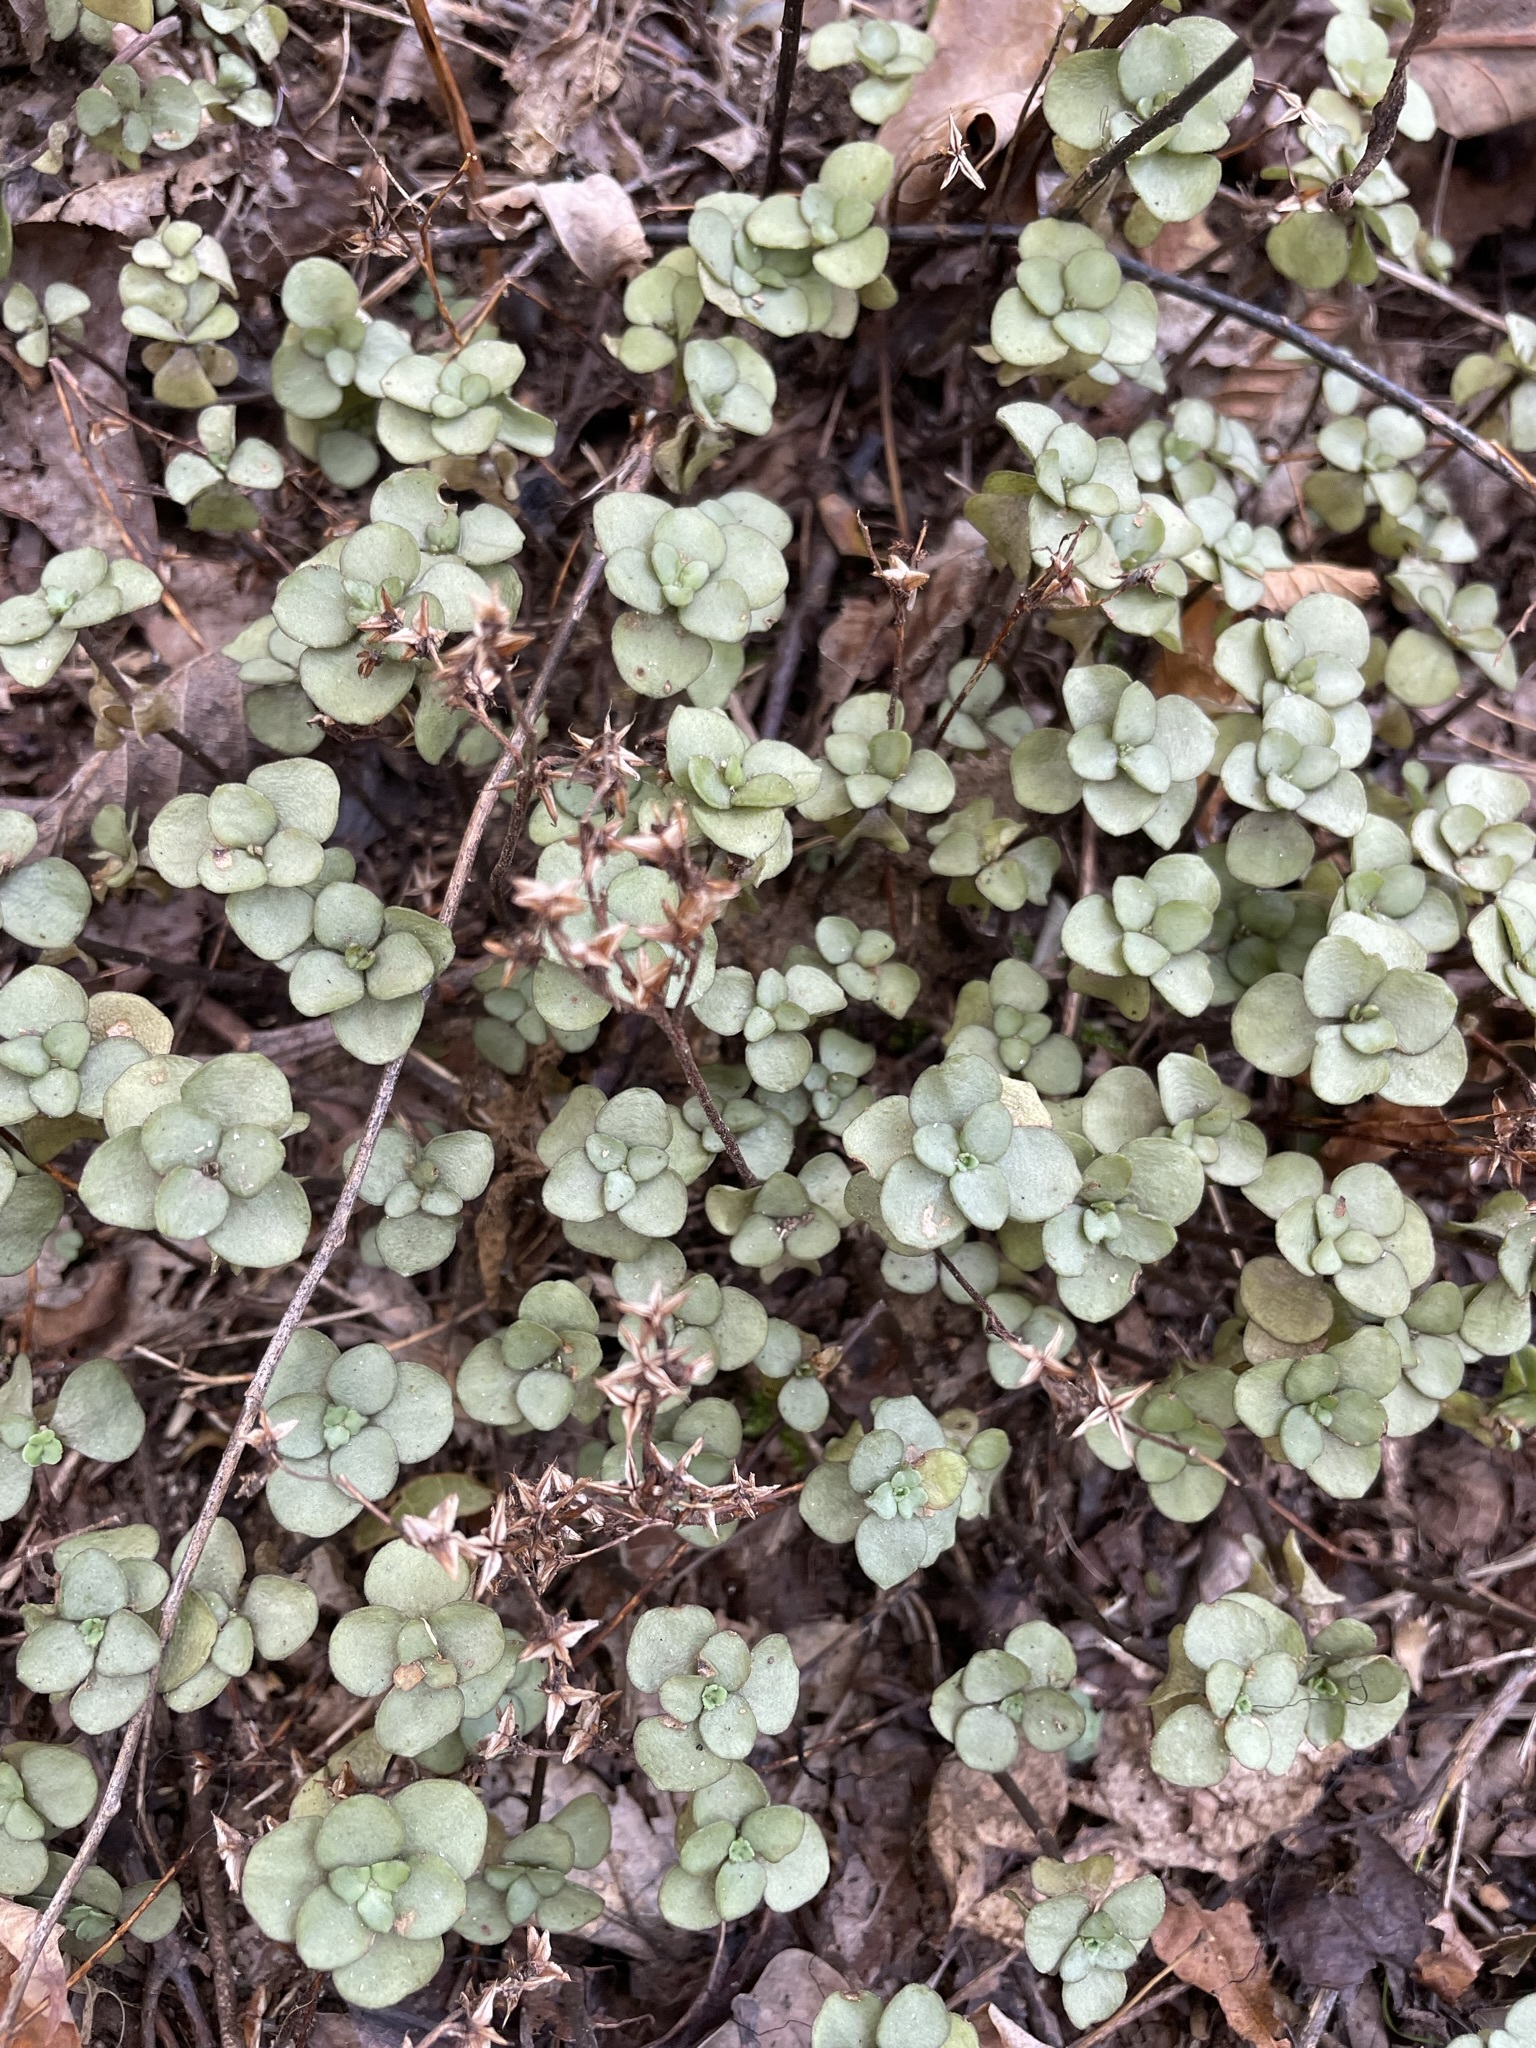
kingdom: Plantae
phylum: Tracheophyta
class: Magnoliopsida
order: Saxifragales
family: Crassulaceae
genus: Sedum
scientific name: Sedum ternatum
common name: Wild stonecrop
